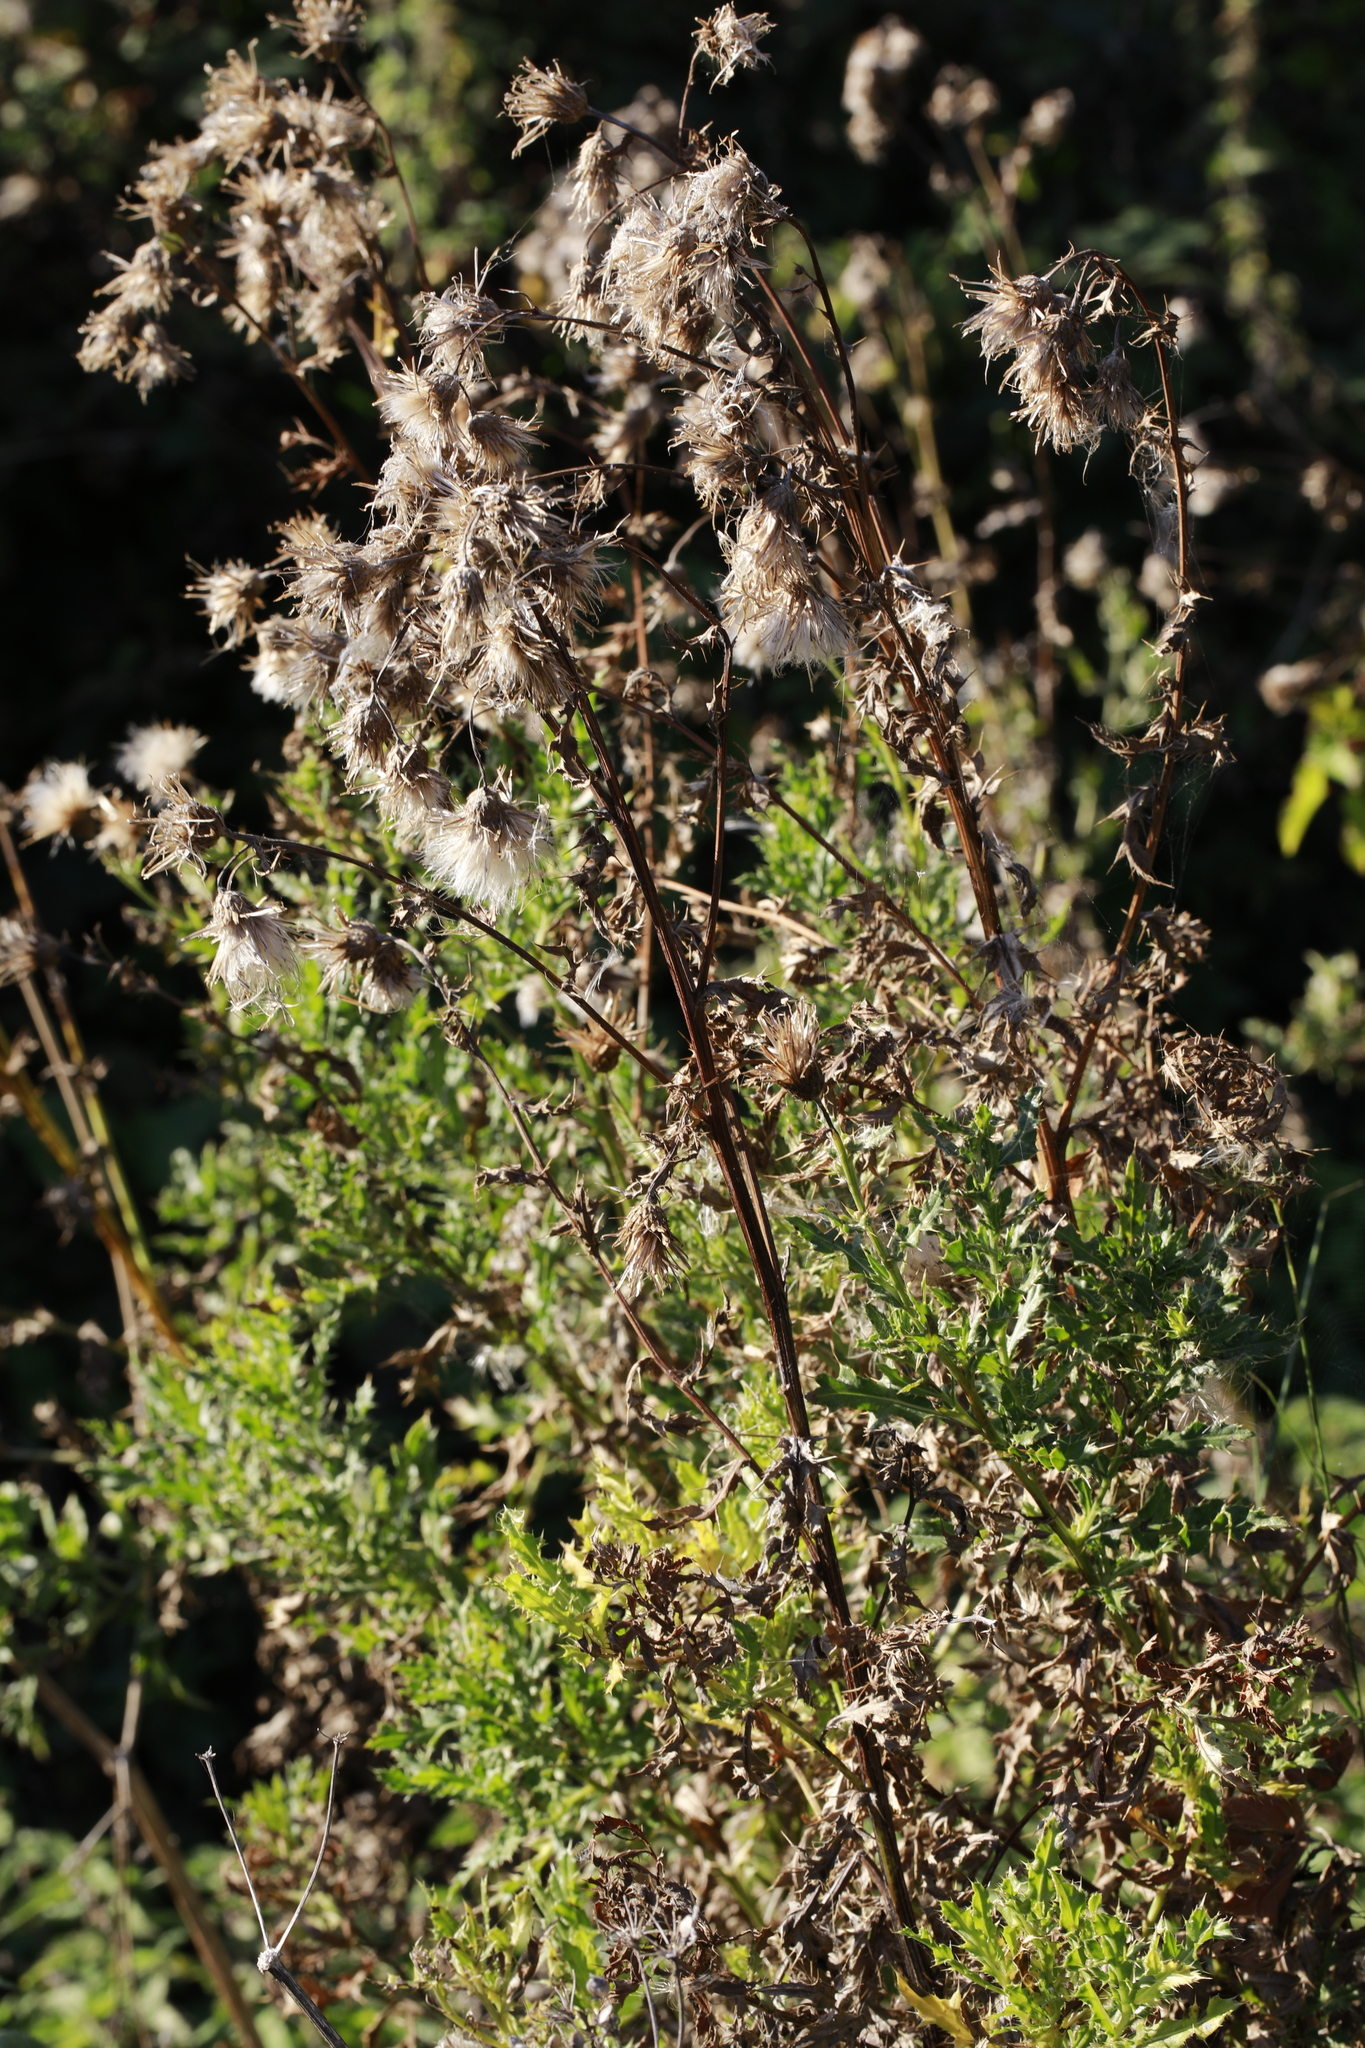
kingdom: Plantae
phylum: Tracheophyta
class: Magnoliopsida
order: Asterales
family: Asteraceae
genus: Cirsium
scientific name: Cirsium arvense
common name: Creeping thistle
